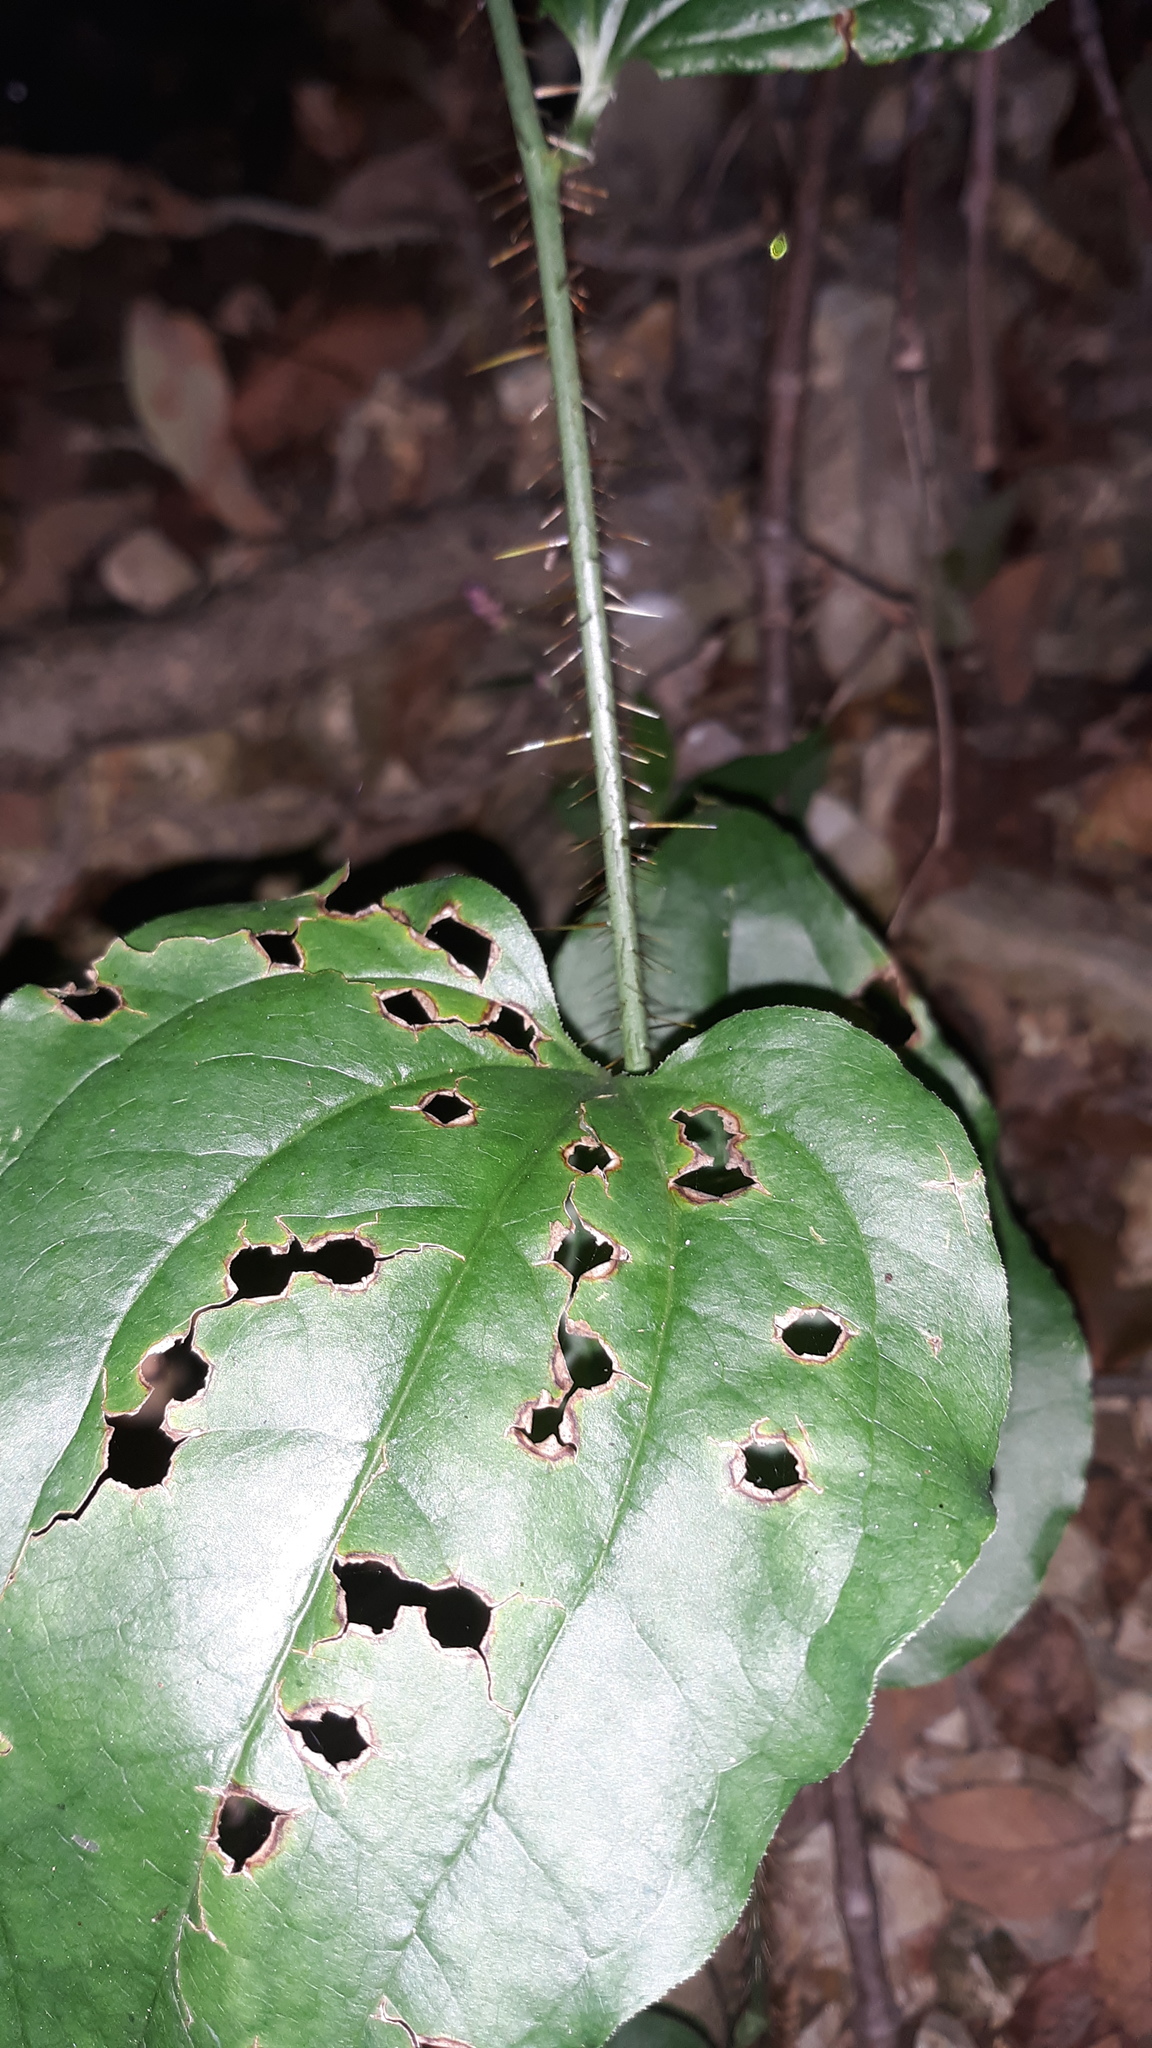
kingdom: Plantae
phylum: Tracheophyta
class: Liliopsida
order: Liliales
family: Smilacaceae
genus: Smilax
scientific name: Smilax tamnoides
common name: Hellfetter
